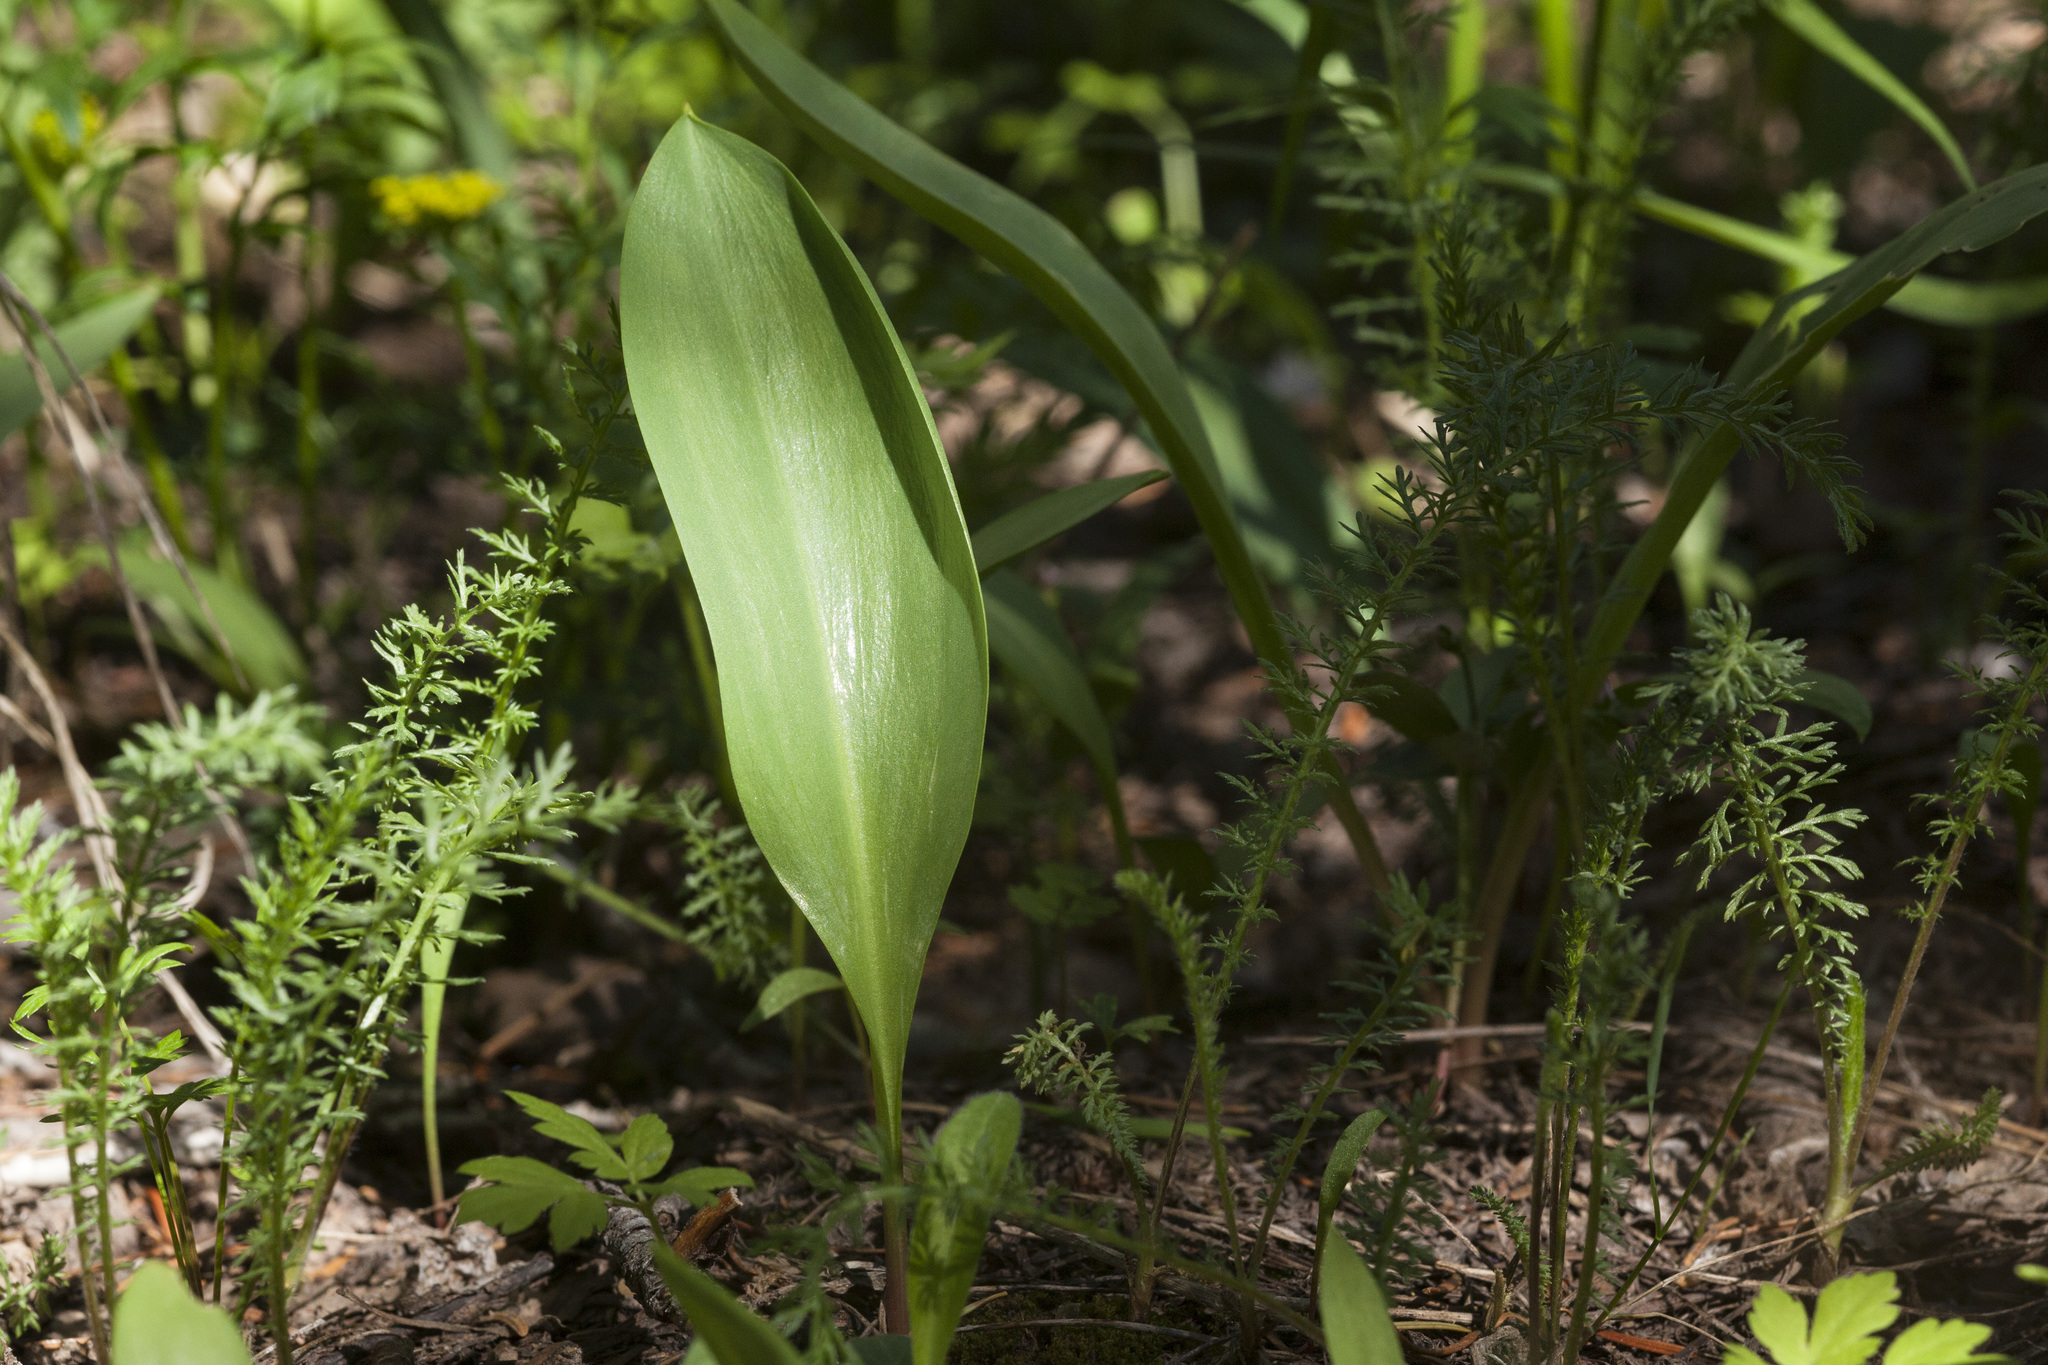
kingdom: Plantae
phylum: Tracheophyta
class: Liliopsida
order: Liliales
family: Liliaceae
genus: Erythronium
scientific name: Erythronium grandiflorum
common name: Avalanche-lily
